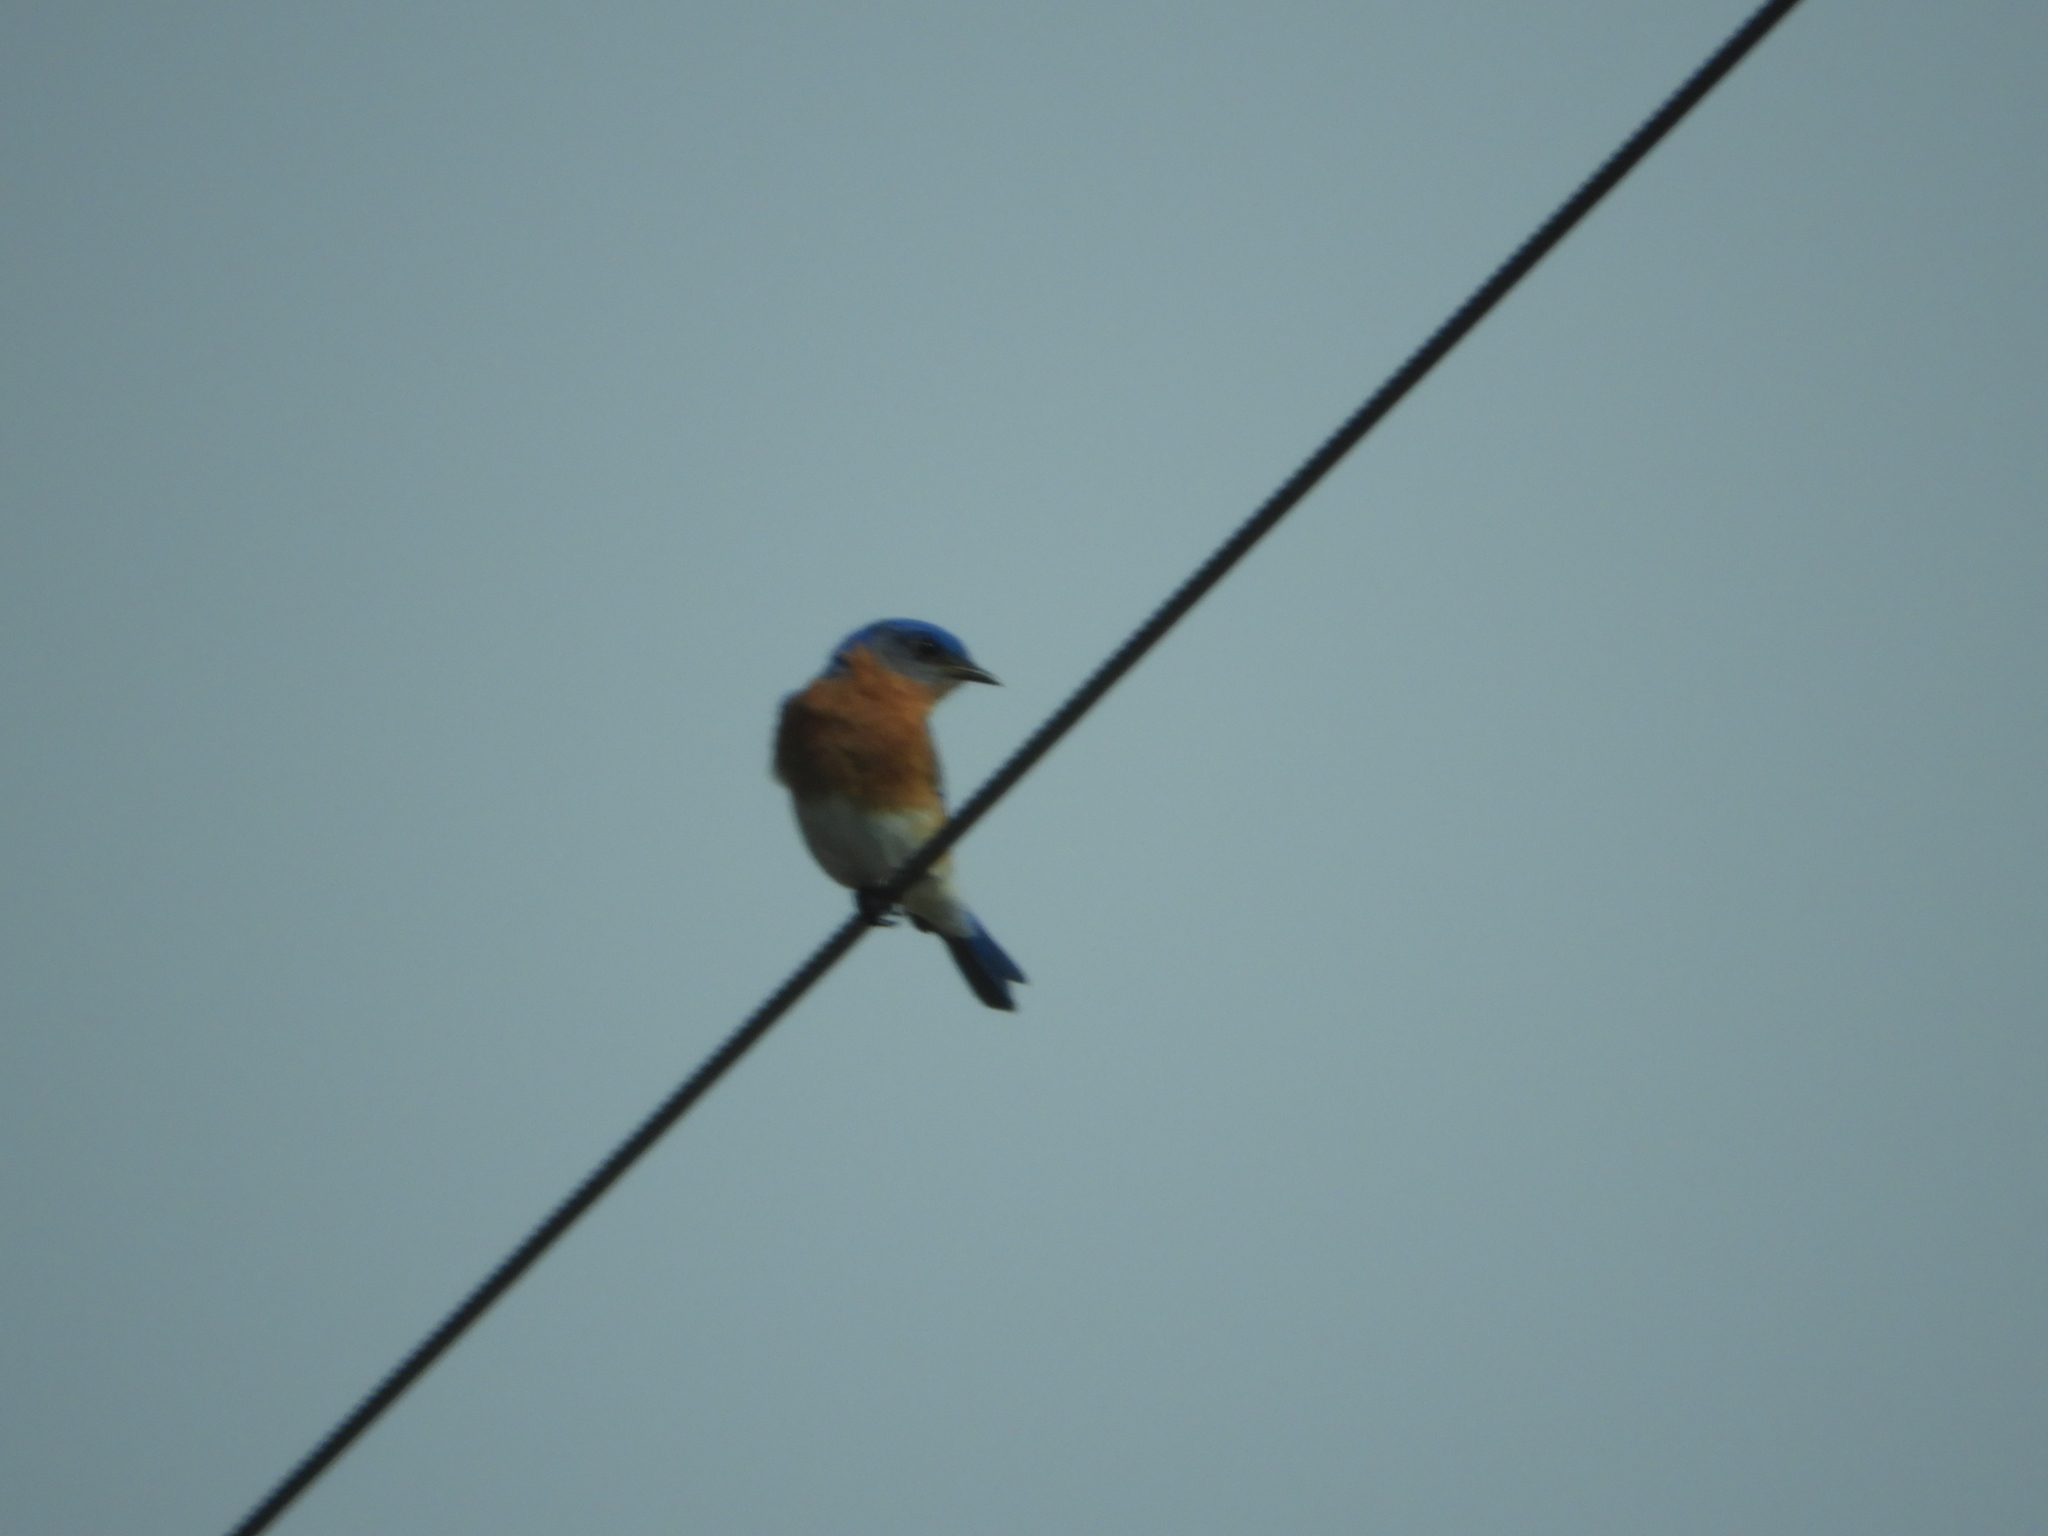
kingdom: Animalia
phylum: Chordata
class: Aves
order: Passeriformes
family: Turdidae
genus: Sialia
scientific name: Sialia sialis
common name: Eastern bluebird
